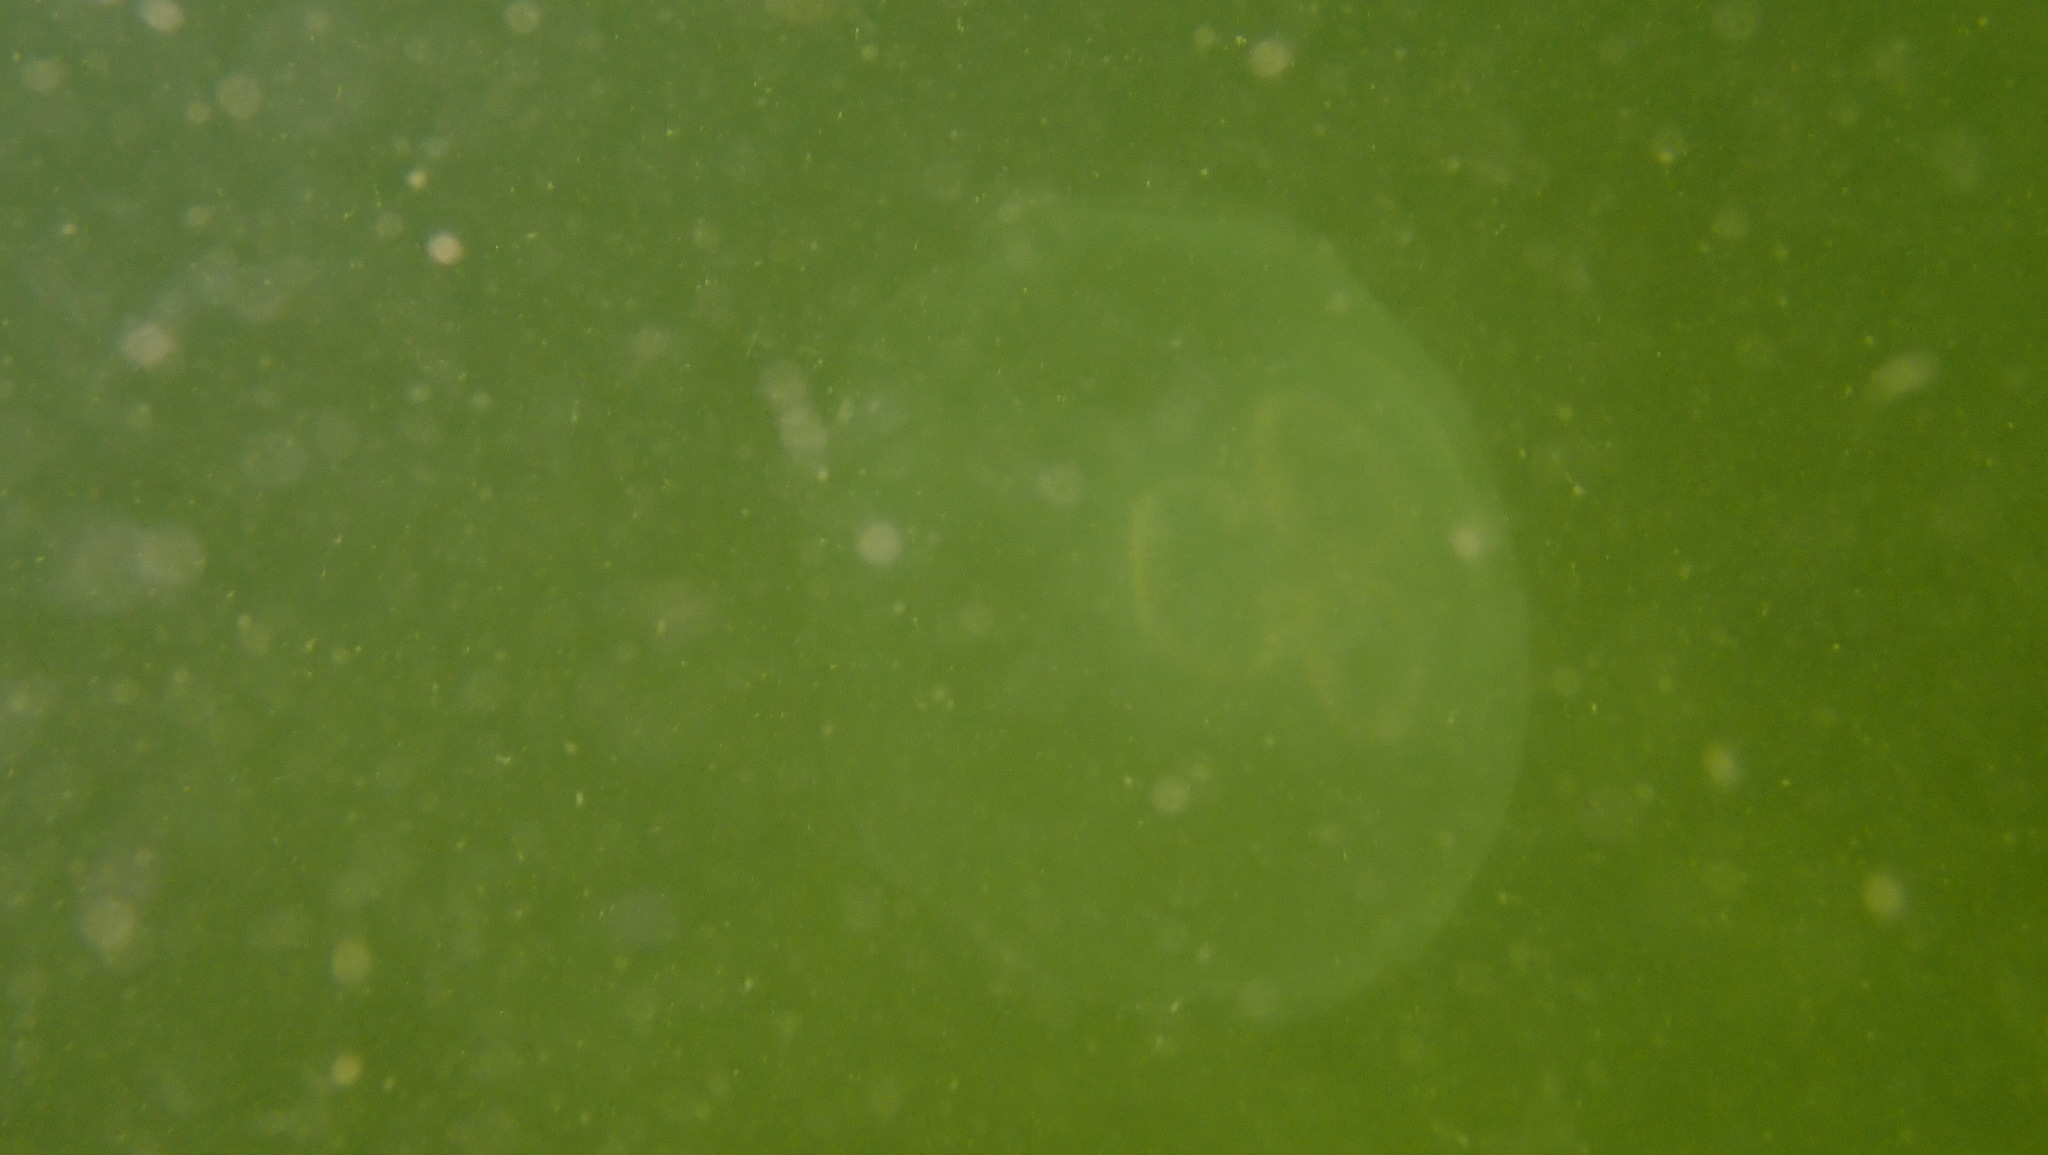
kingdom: Animalia
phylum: Cnidaria
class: Scyphozoa
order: Semaeostomeae
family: Ulmaridae
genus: Aurelia
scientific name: Aurelia aurita
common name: Moon jellyfish
